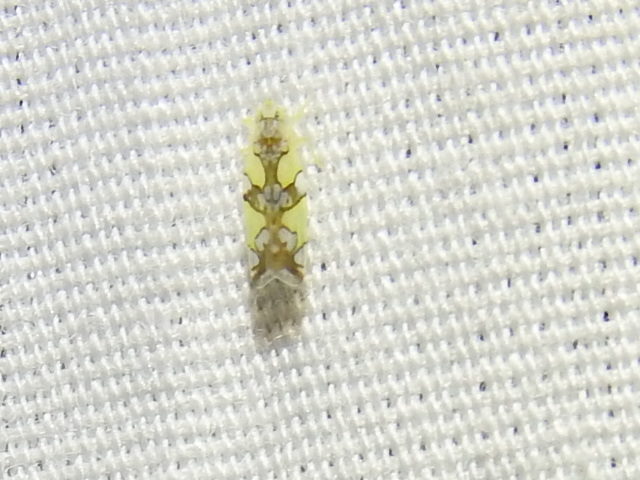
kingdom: Animalia
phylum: Arthropoda
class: Insecta
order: Hemiptera
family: Cicadellidae
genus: Protalebrella
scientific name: Protalebrella conica
